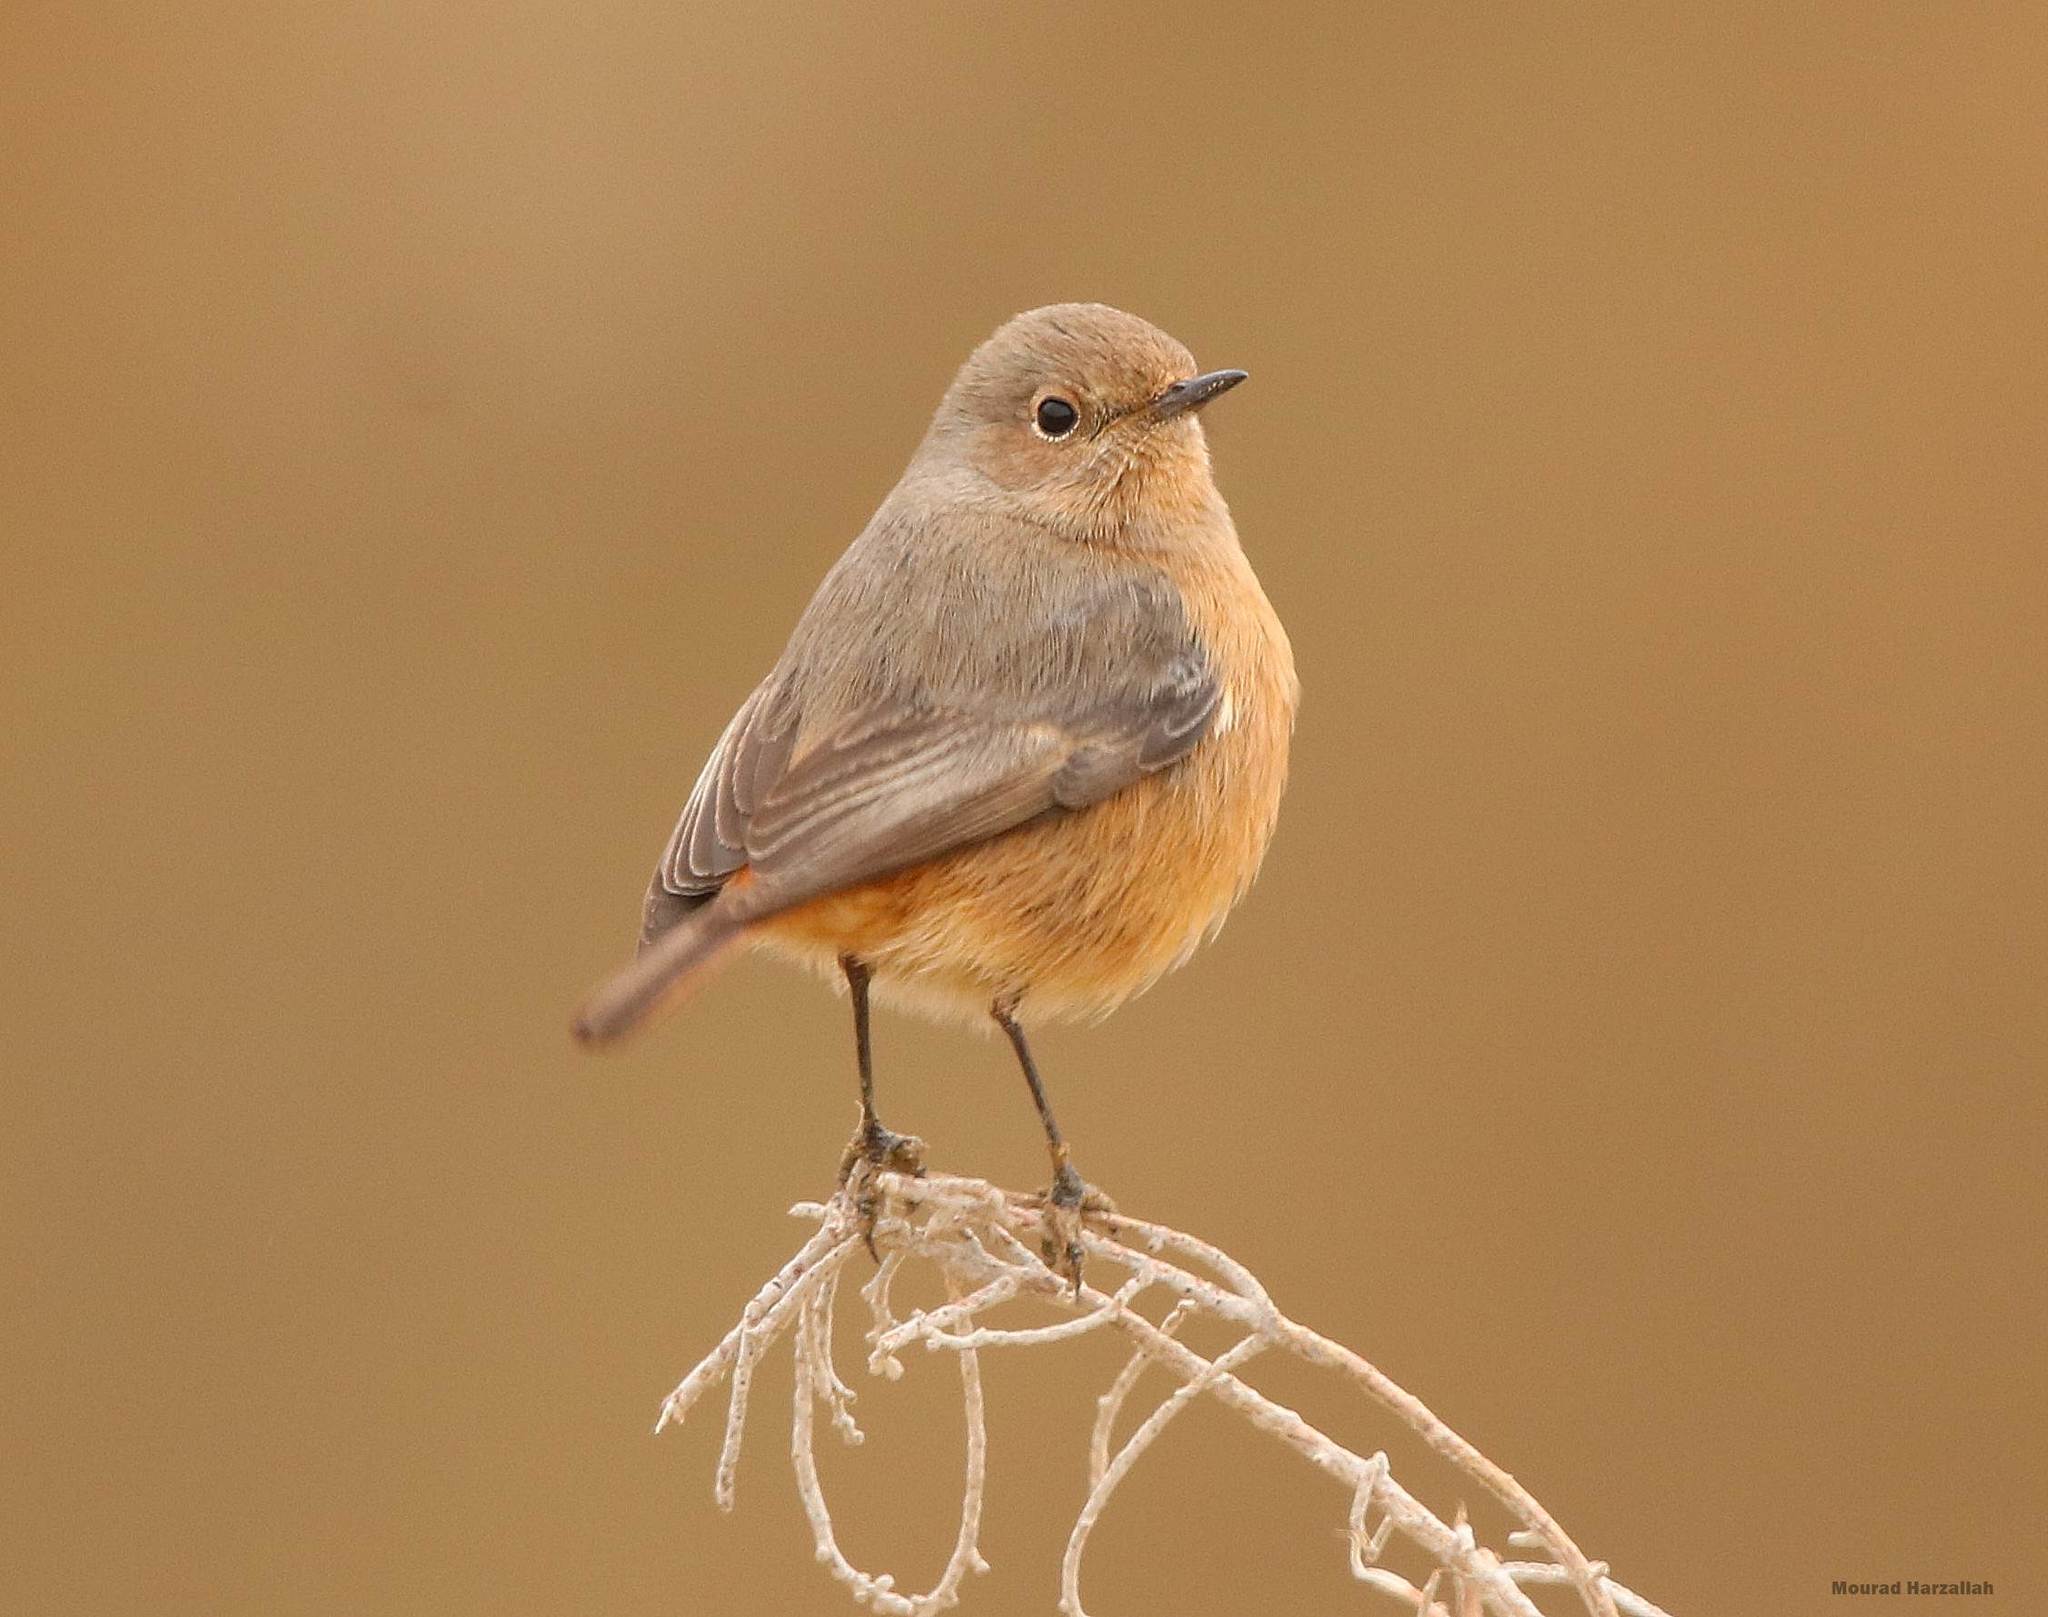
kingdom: Animalia
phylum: Chordata
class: Aves
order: Passeriformes
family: Muscicapidae
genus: Phoenicurus
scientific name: Phoenicurus moussieri
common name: Moussier's redstart
